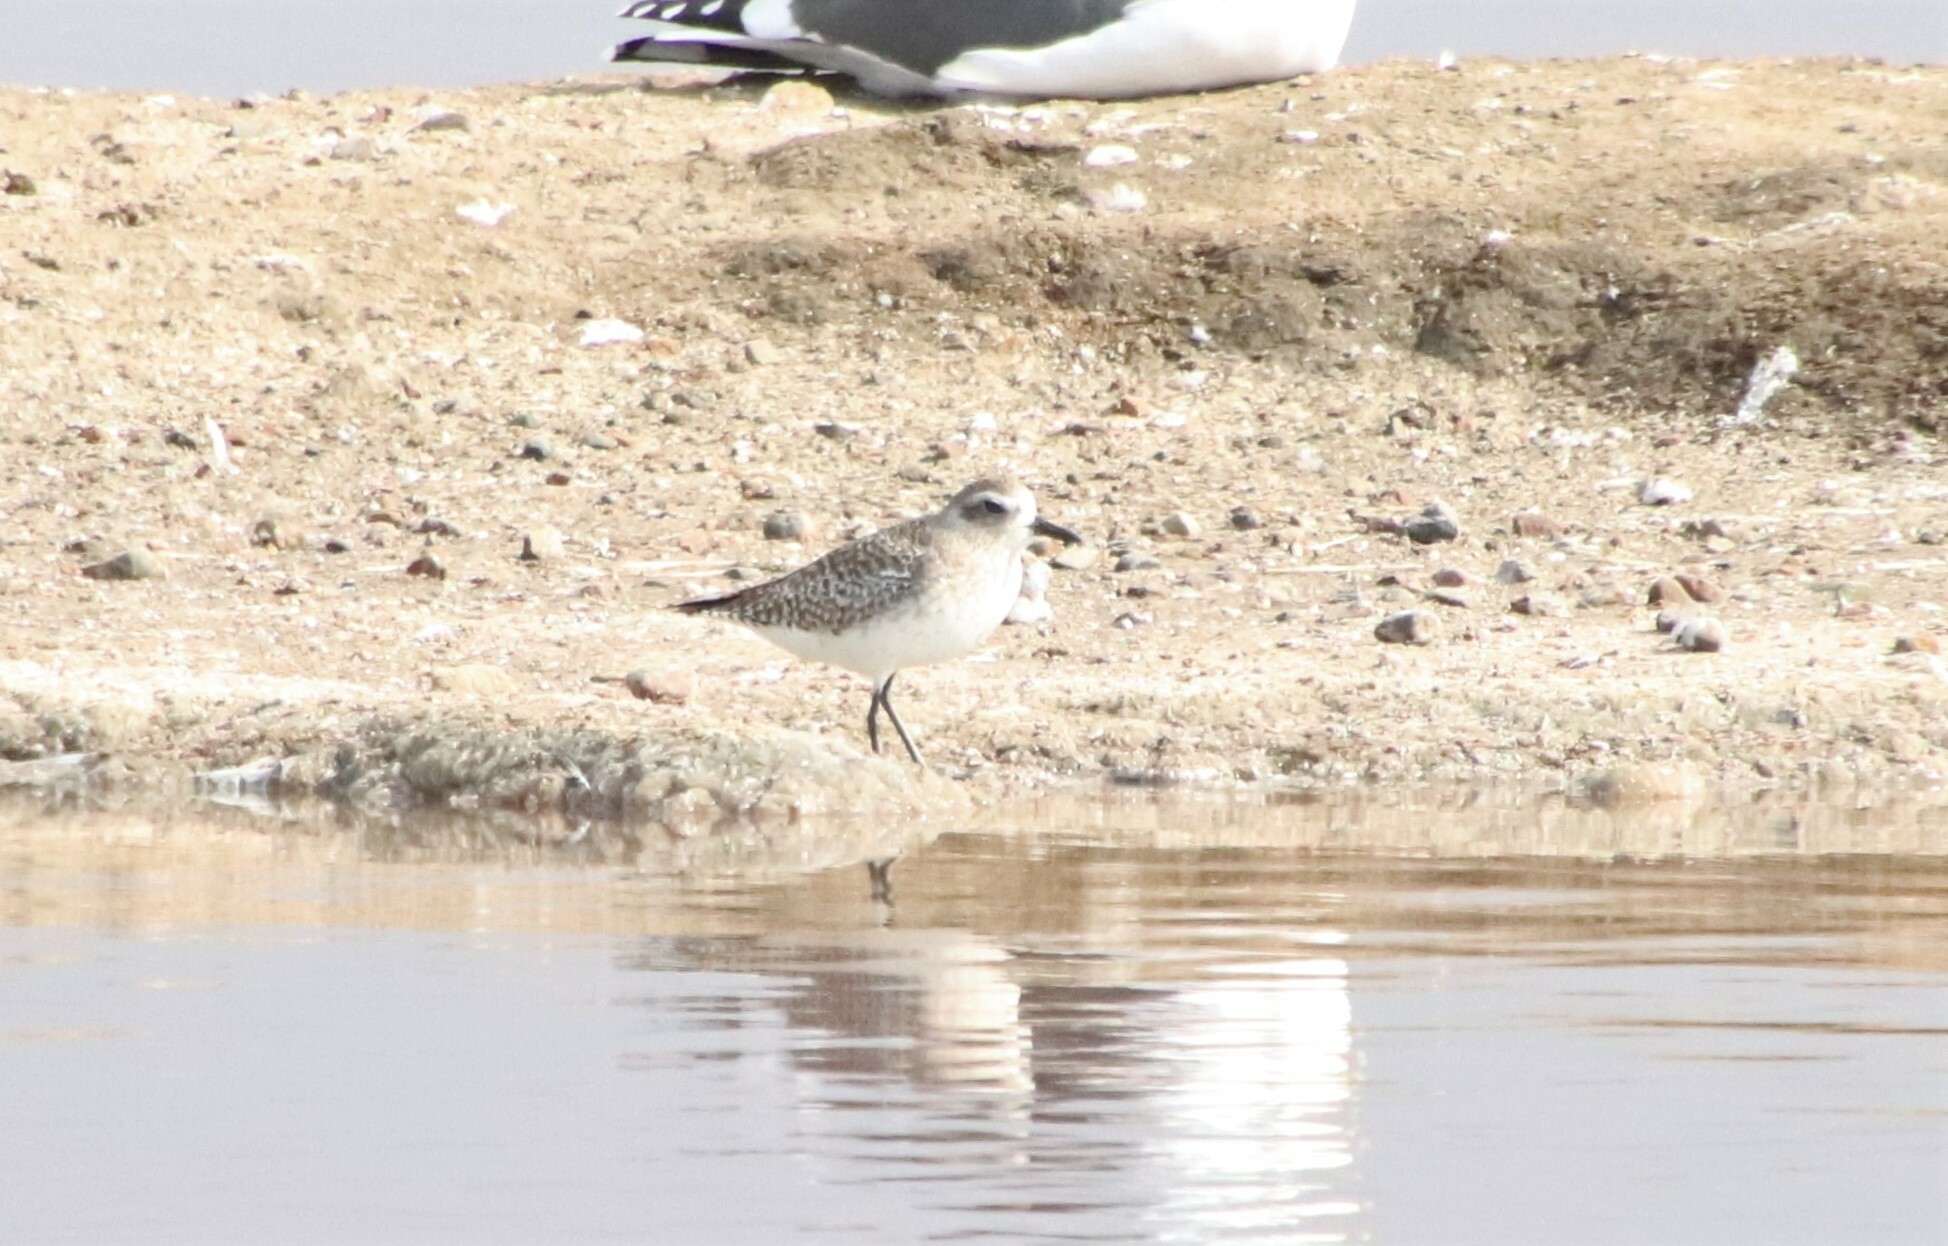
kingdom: Animalia
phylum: Chordata
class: Aves
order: Charadriiformes
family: Charadriidae
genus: Pluvialis
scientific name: Pluvialis squatarola
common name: Grey plover
